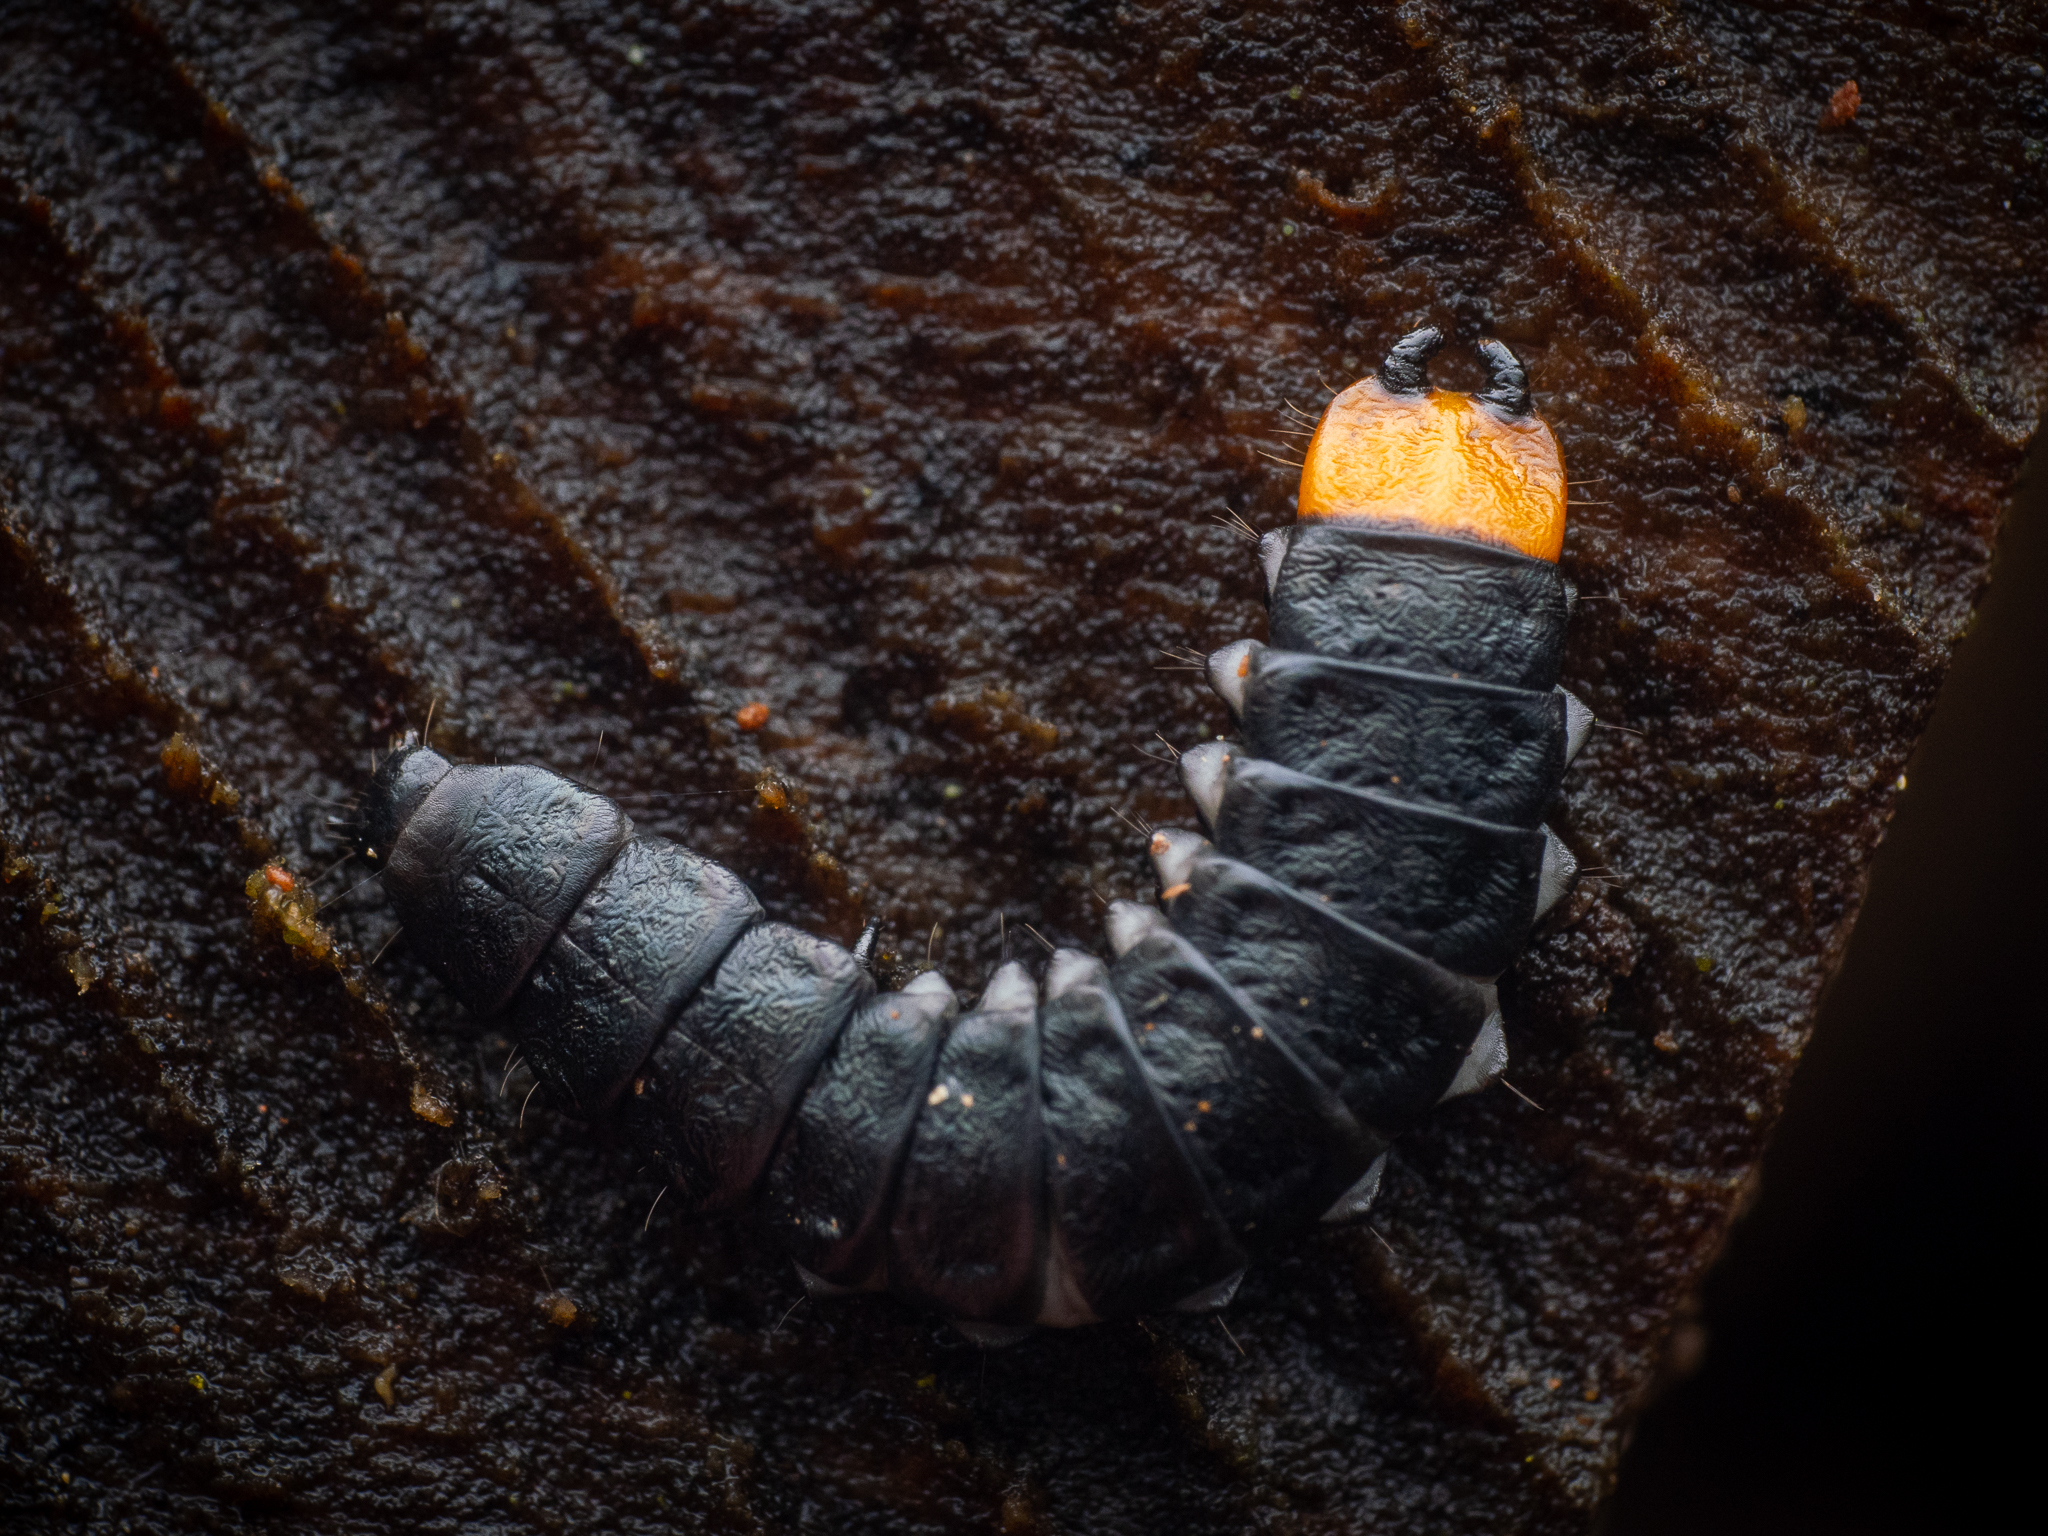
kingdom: Animalia
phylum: Arthropoda
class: Insecta
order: Coleoptera
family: Lycidae
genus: Lygistopterus
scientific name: Lygistopterus sanguineus
